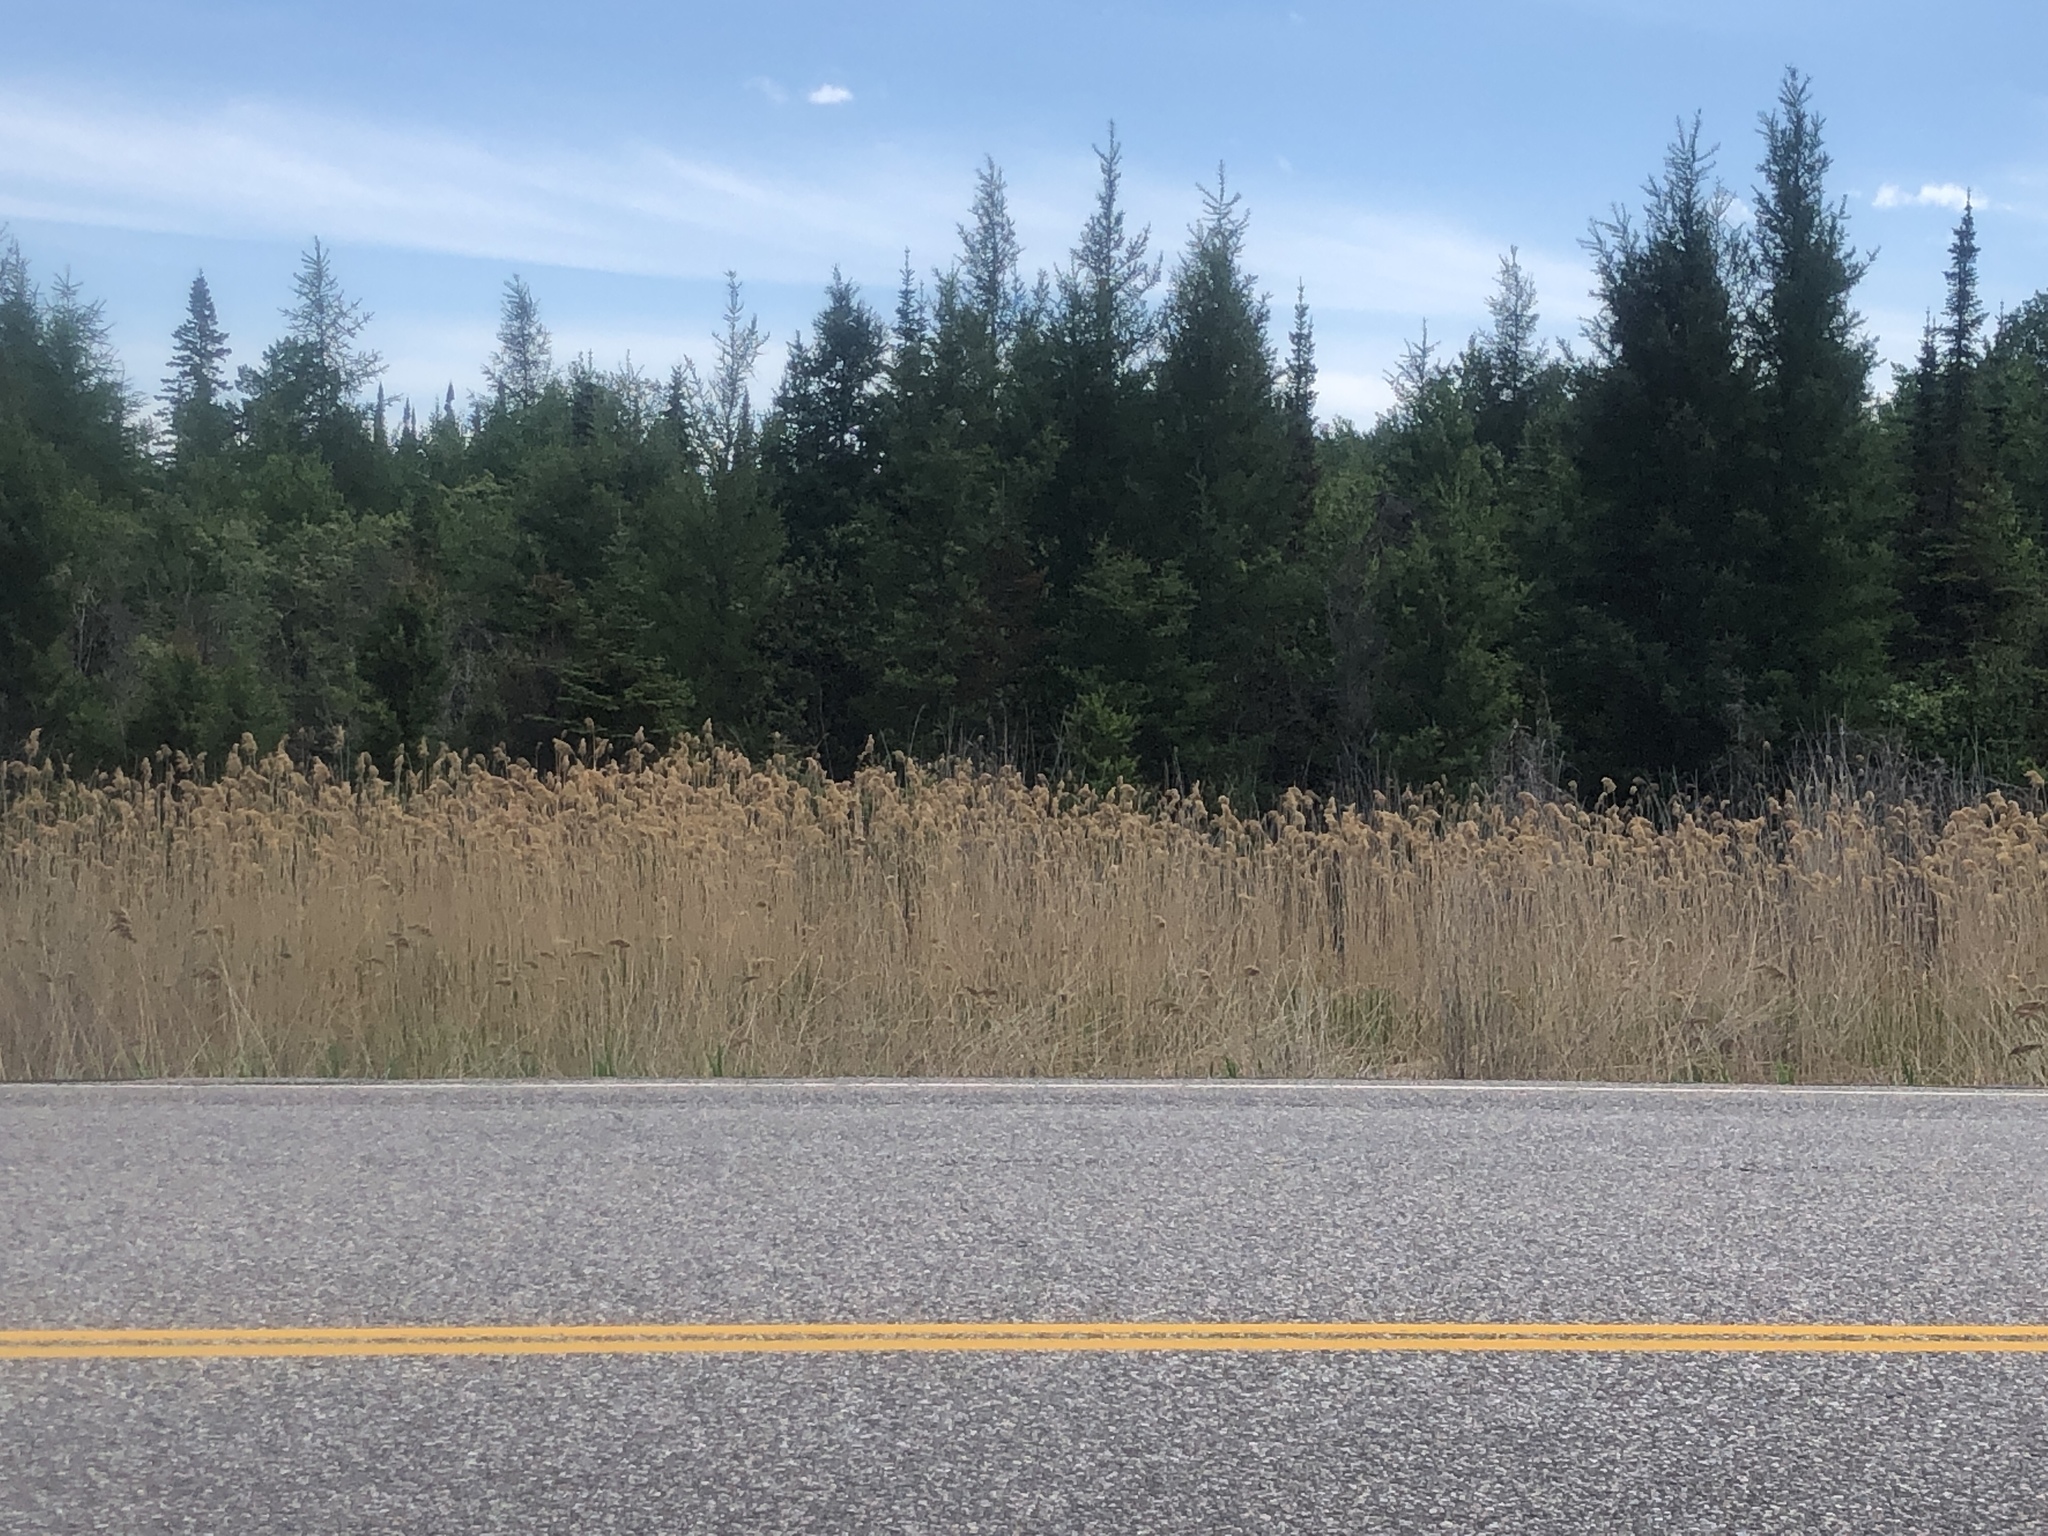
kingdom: Plantae
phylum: Tracheophyta
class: Liliopsida
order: Poales
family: Poaceae
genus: Phragmites
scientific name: Phragmites australis
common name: Common reed
